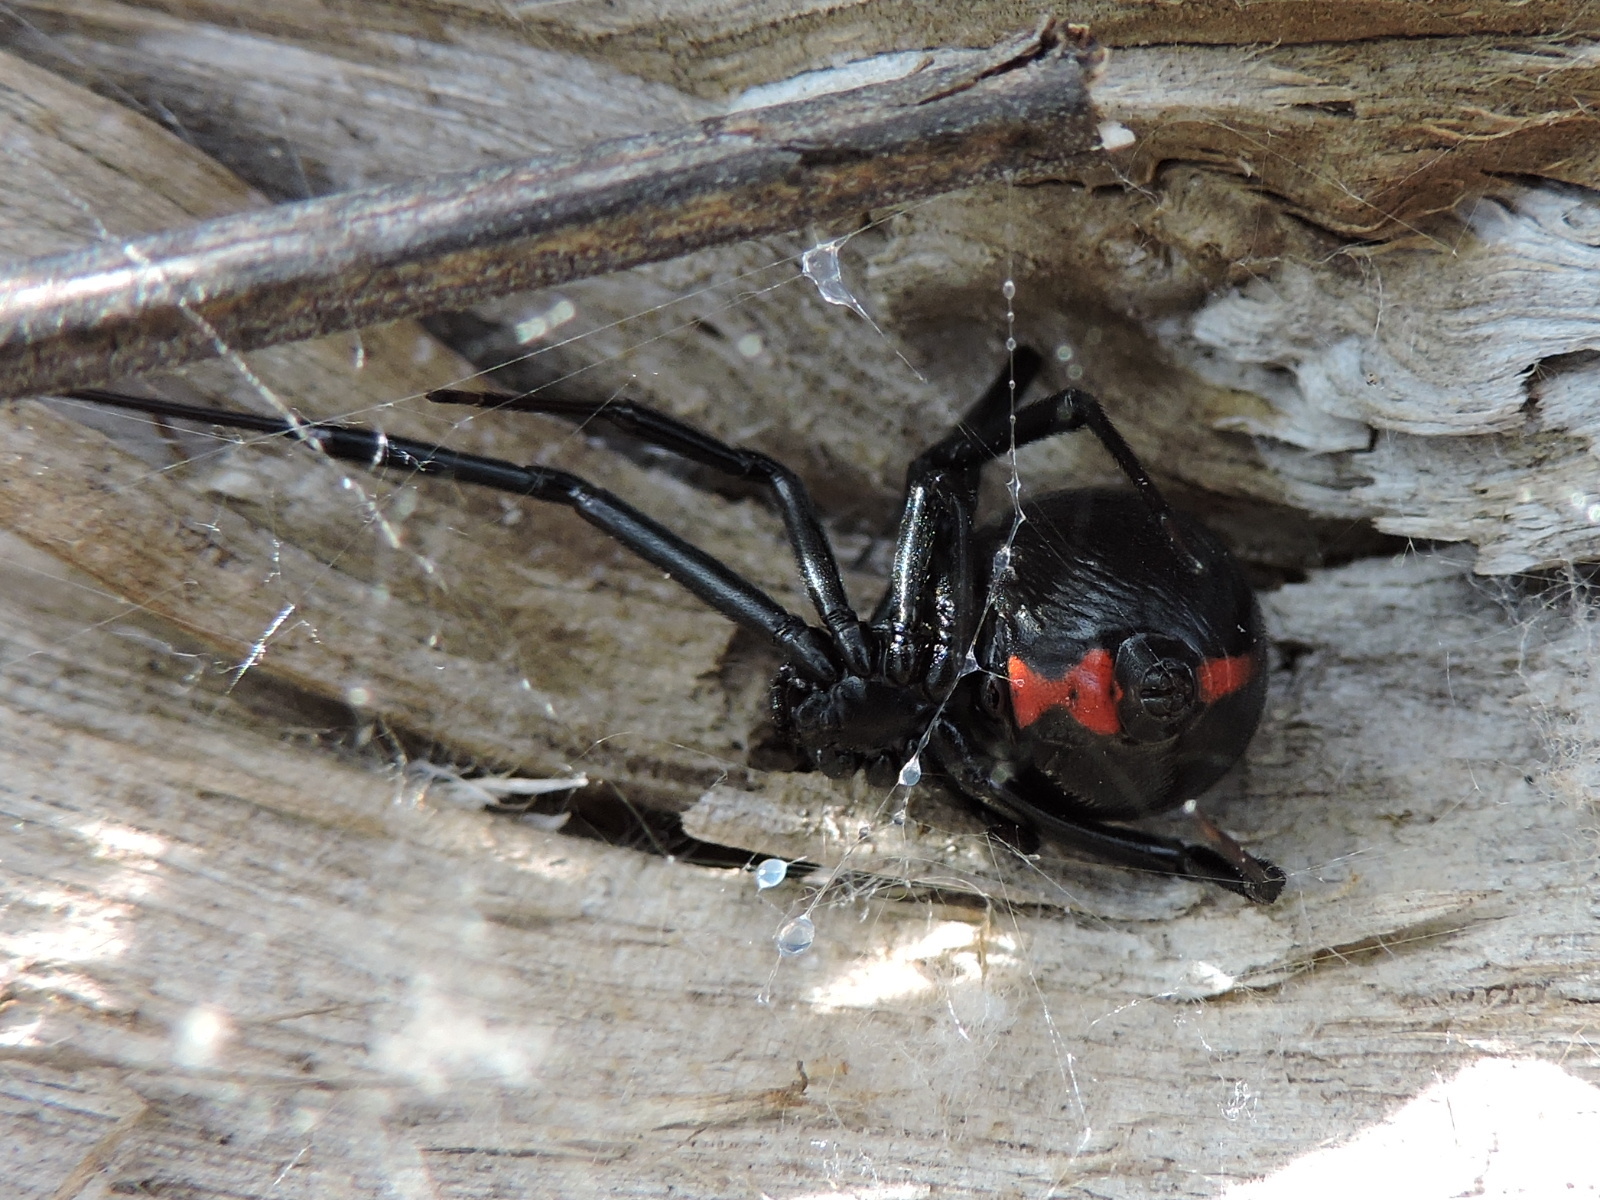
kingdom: Animalia
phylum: Arthropoda
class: Arachnida
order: Araneae
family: Theridiidae
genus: Latrodectus
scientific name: Latrodectus mactans
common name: Cobweb spiders
